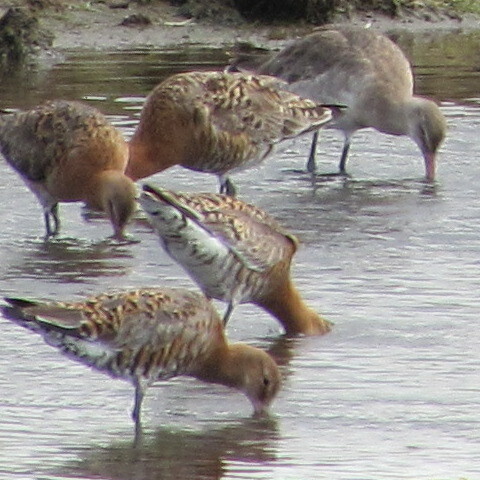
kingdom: Animalia
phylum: Chordata
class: Aves
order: Charadriiformes
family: Scolopacidae
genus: Limosa
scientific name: Limosa limosa
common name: Black-tailed godwit
